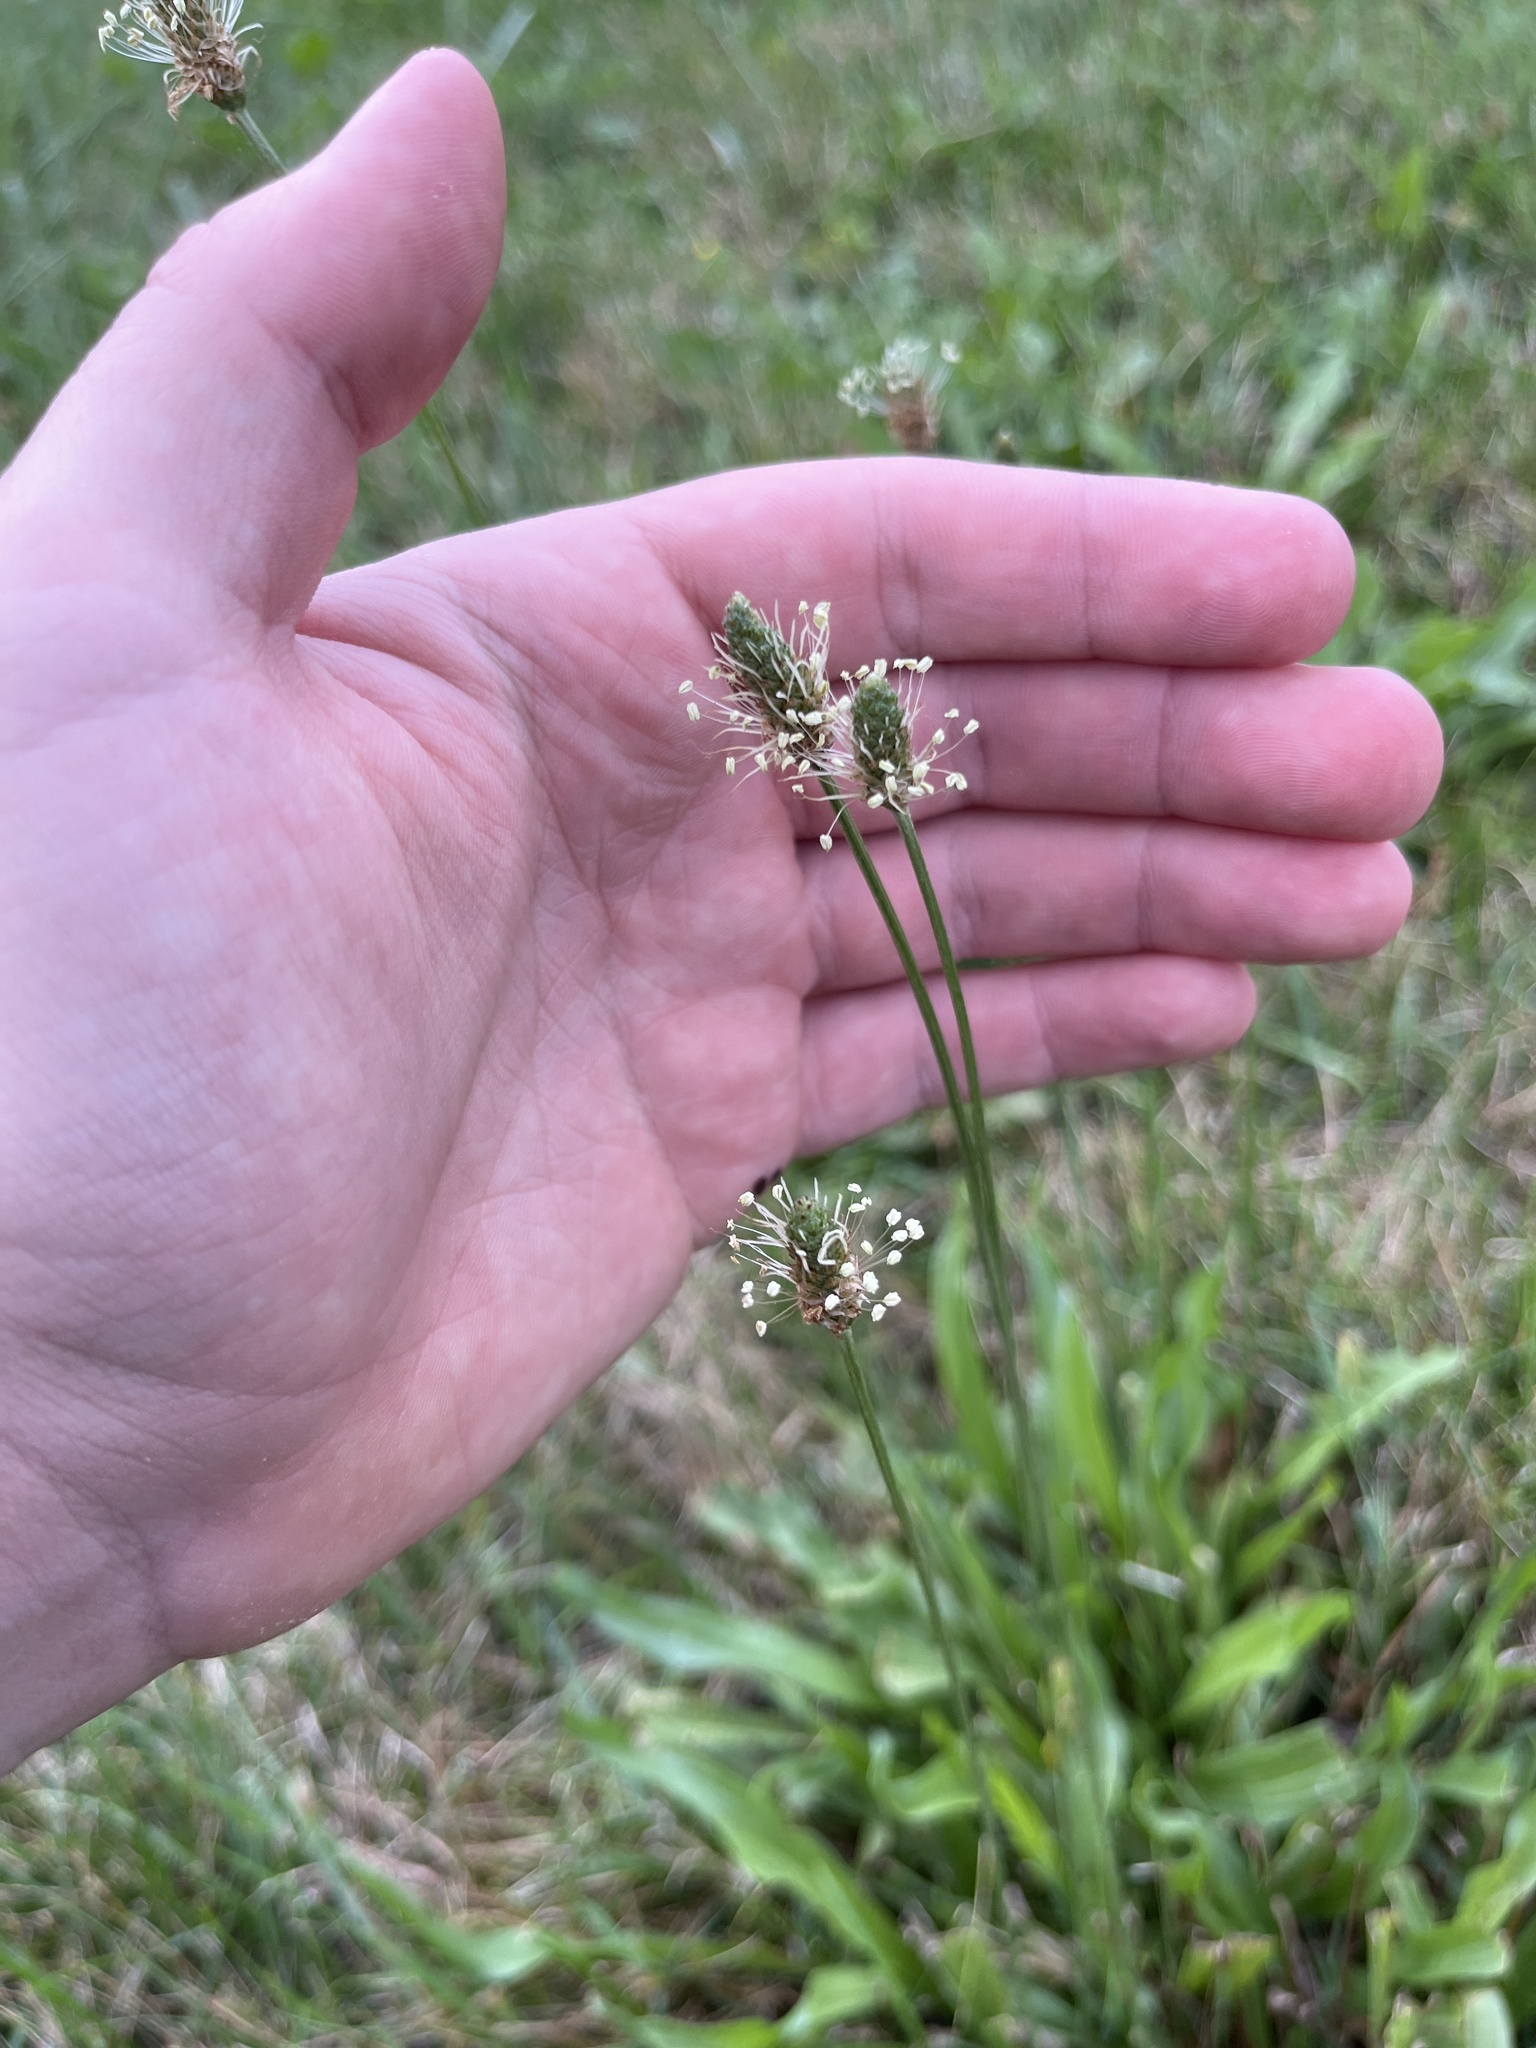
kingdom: Plantae
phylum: Tracheophyta
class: Magnoliopsida
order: Lamiales
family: Plantaginaceae
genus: Plantago
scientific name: Plantago lanceolata
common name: Ribwort plantain
